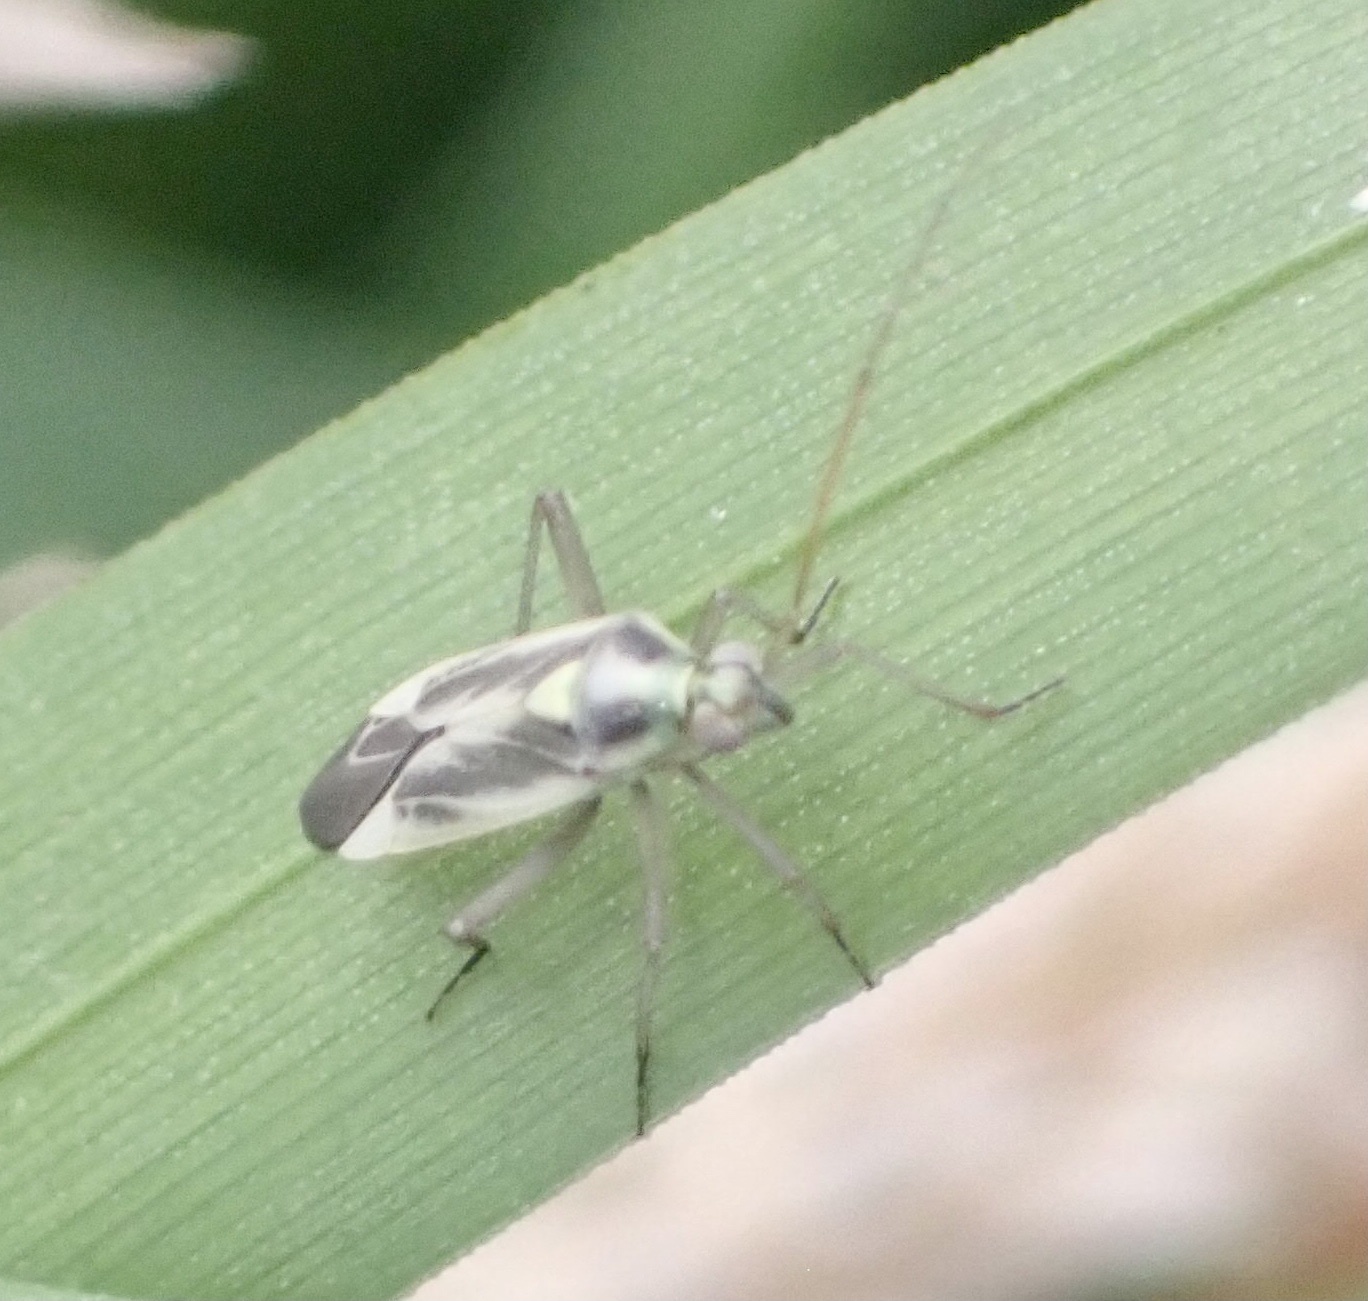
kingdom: Animalia
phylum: Arthropoda
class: Insecta
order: Hemiptera
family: Miridae
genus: Stenotus
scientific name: Stenotus binotatus
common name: Plant bug
